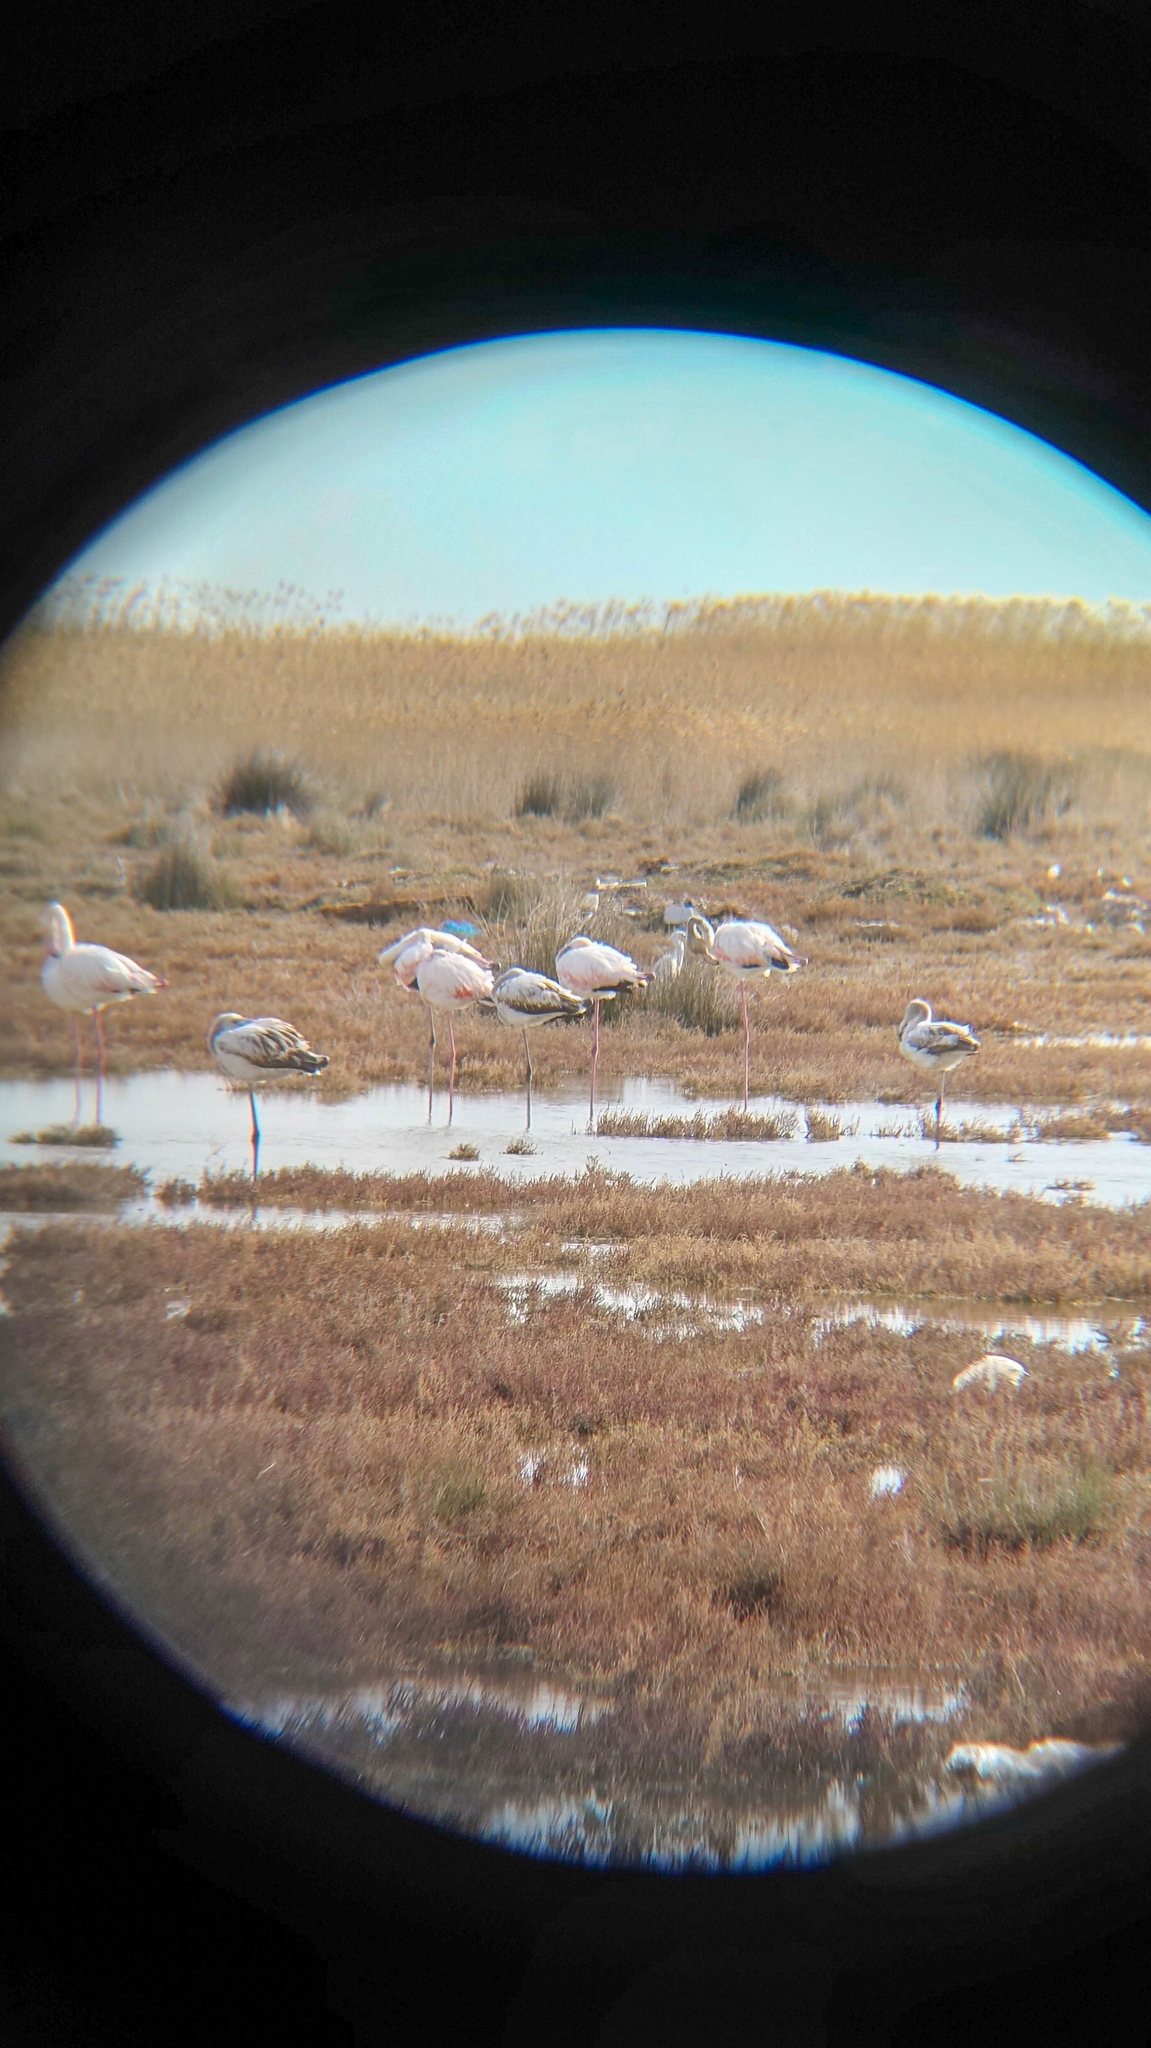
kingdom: Animalia
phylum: Chordata
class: Aves
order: Phoenicopteriformes
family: Phoenicopteridae
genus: Phoenicopterus
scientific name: Phoenicopterus roseus
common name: Greater flamingo
